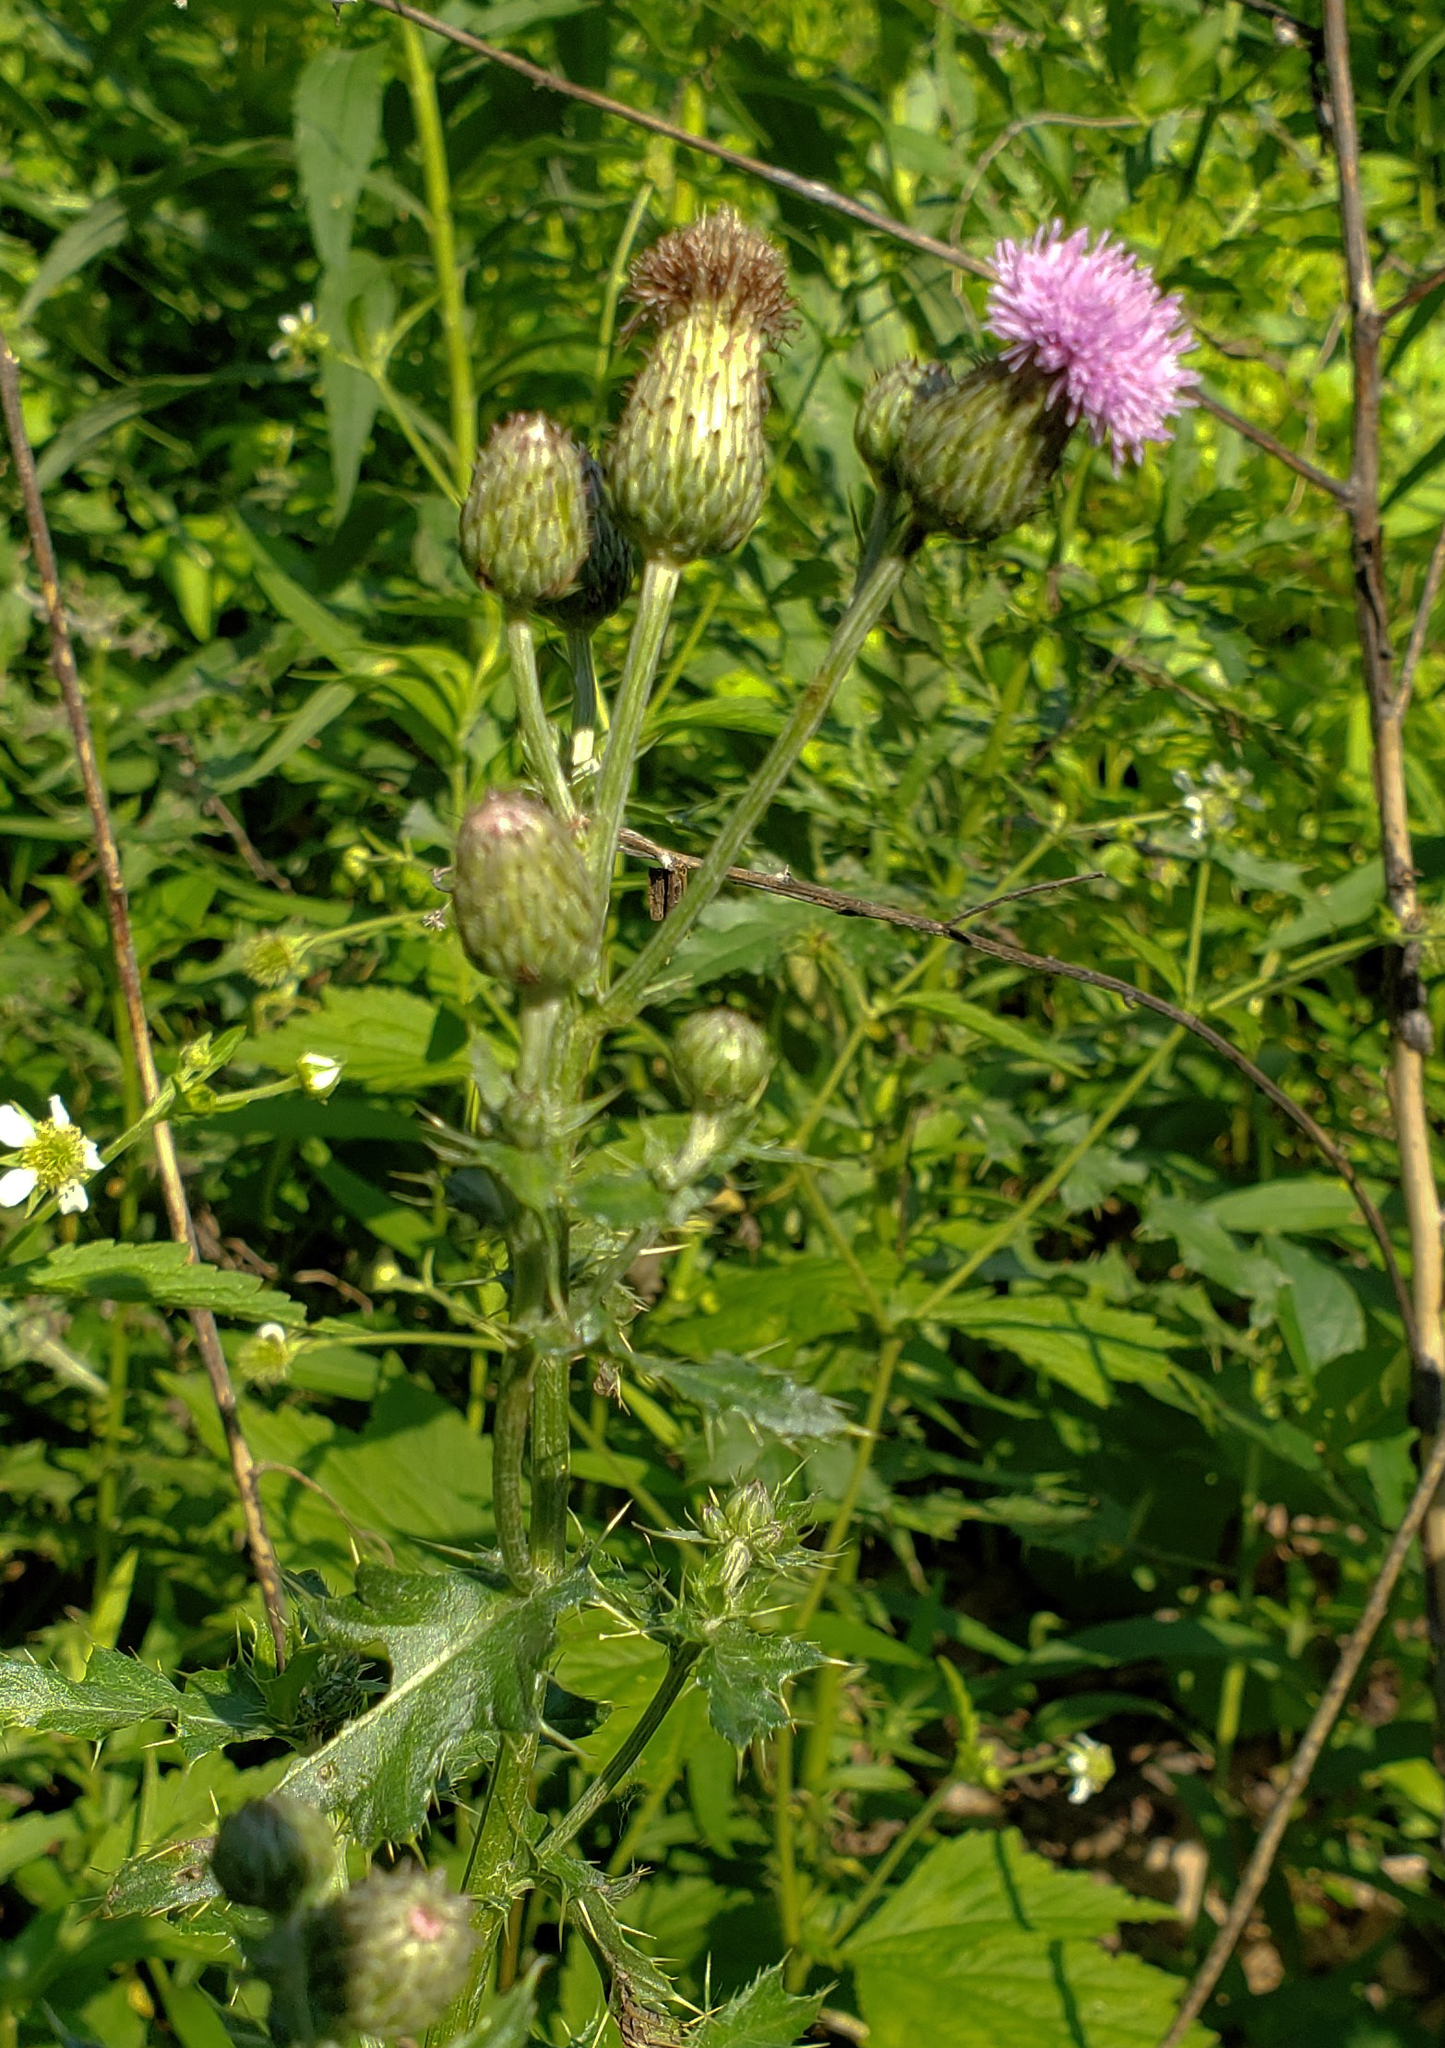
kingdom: Plantae
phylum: Tracheophyta
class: Magnoliopsida
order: Asterales
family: Asteraceae
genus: Cirsium
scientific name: Cirsium arvense
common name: Creeping thistle
